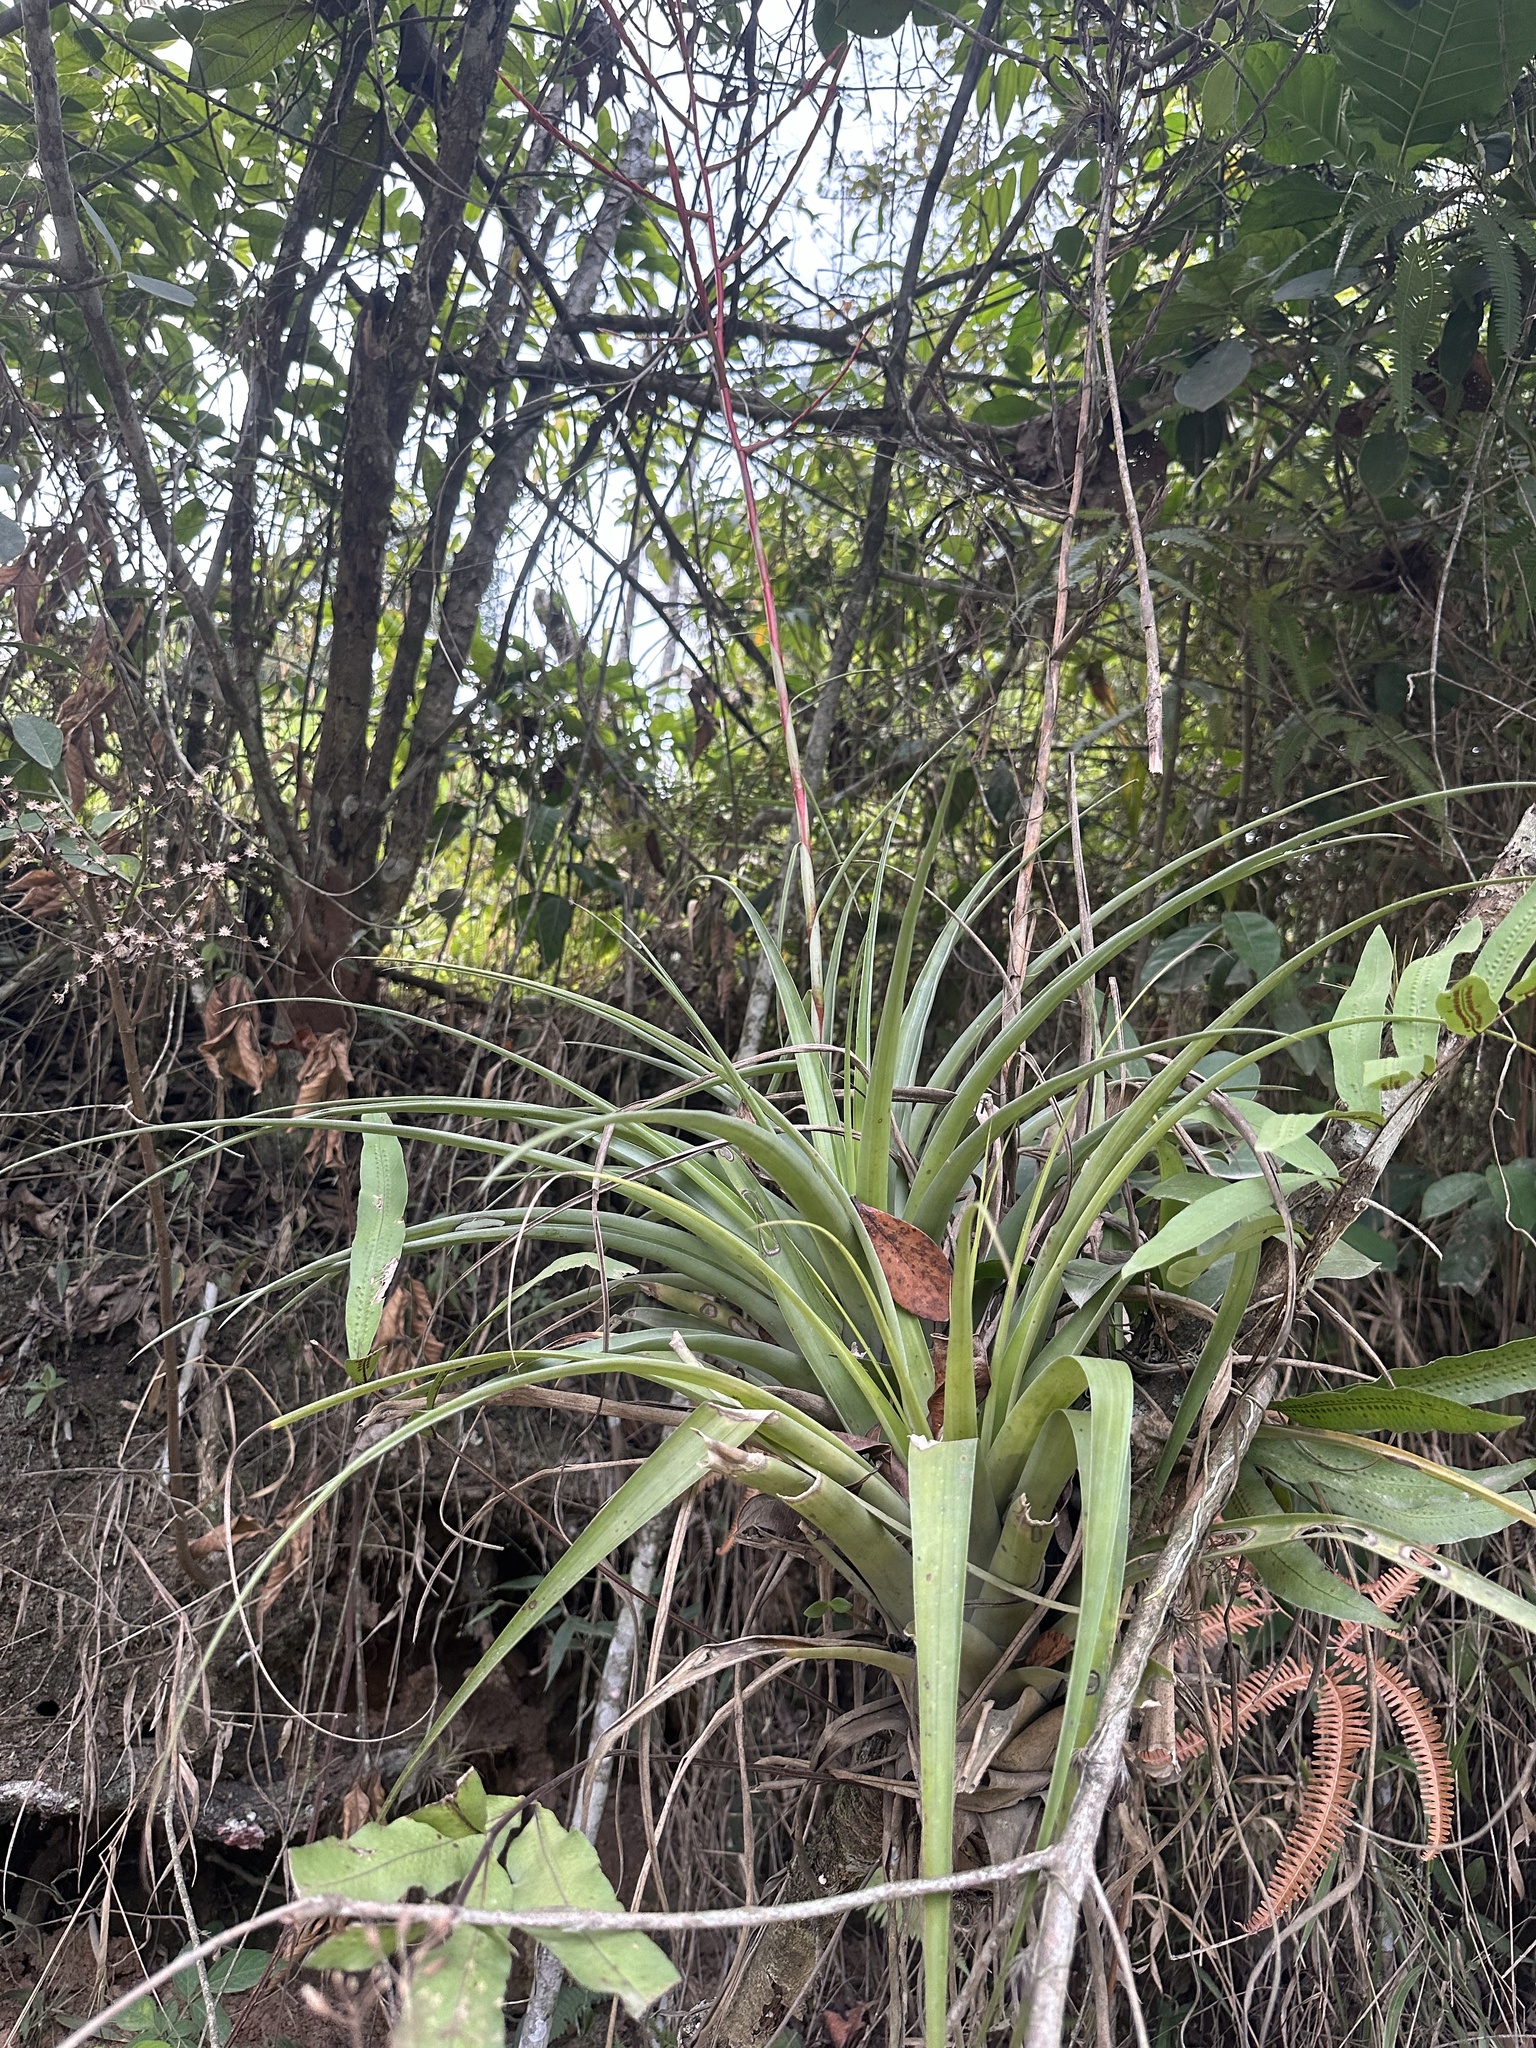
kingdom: Plantae
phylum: Tracheophyta
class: Liliopsida
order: Poales
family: Bromeliaceae
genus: Tillandsia
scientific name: Tillandsia elongata
